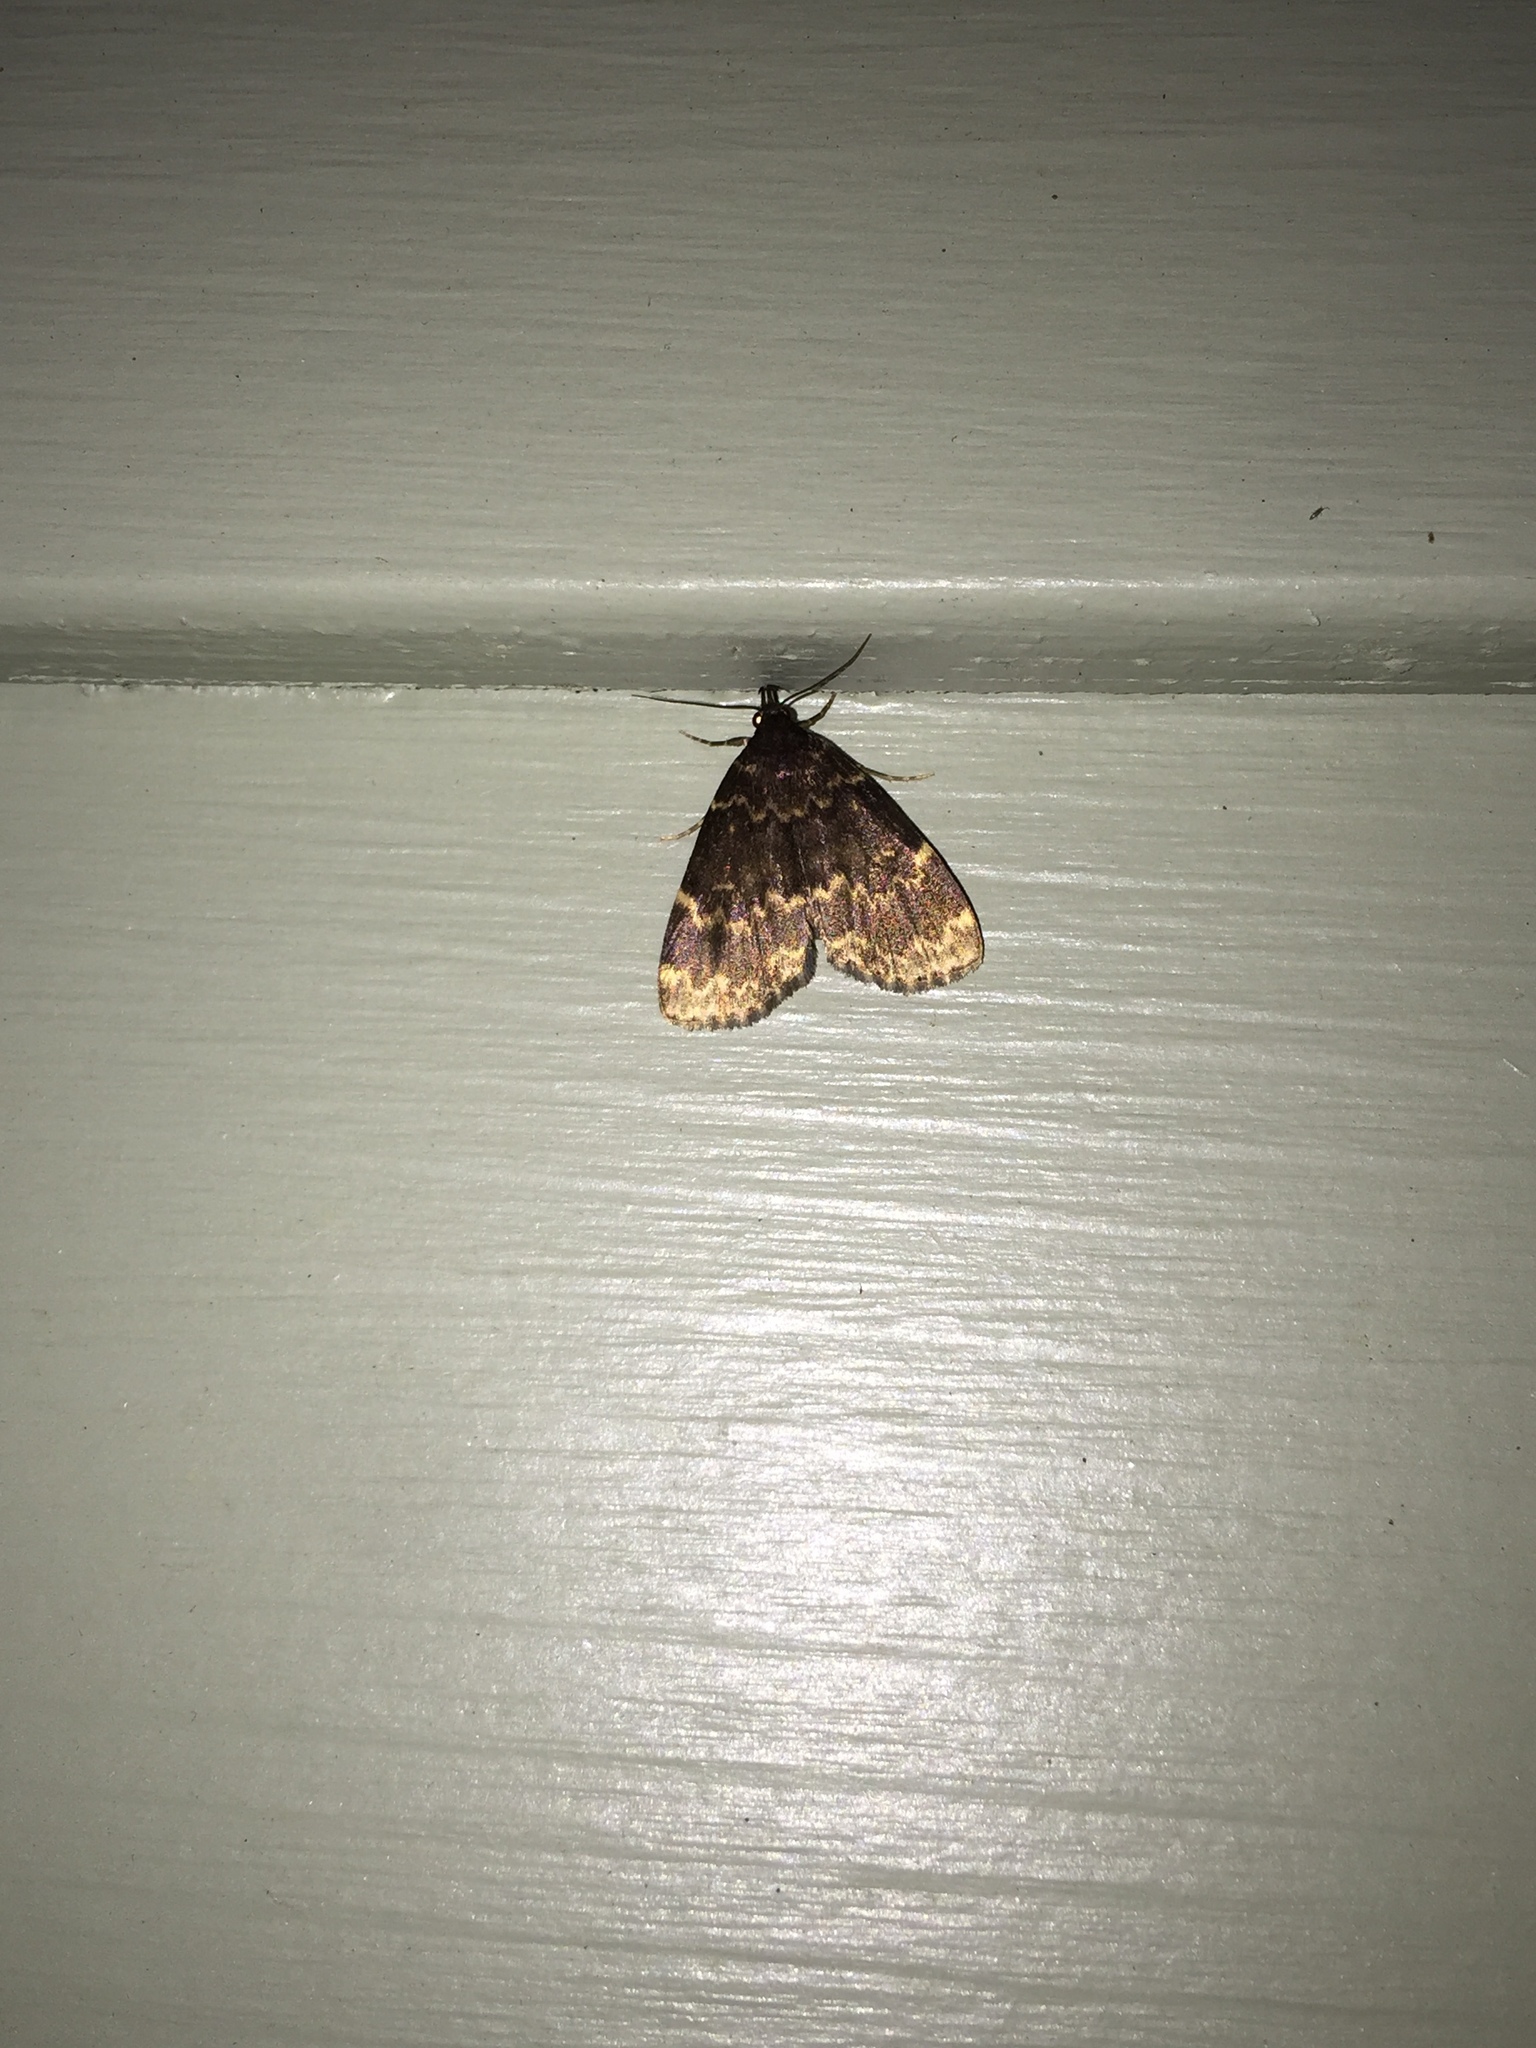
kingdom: Animalia
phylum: Arthropoda
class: Insecta
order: Lepidoptera
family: Erebidae
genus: Idia
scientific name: Idia lubricalis
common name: Twin-striped tabby
